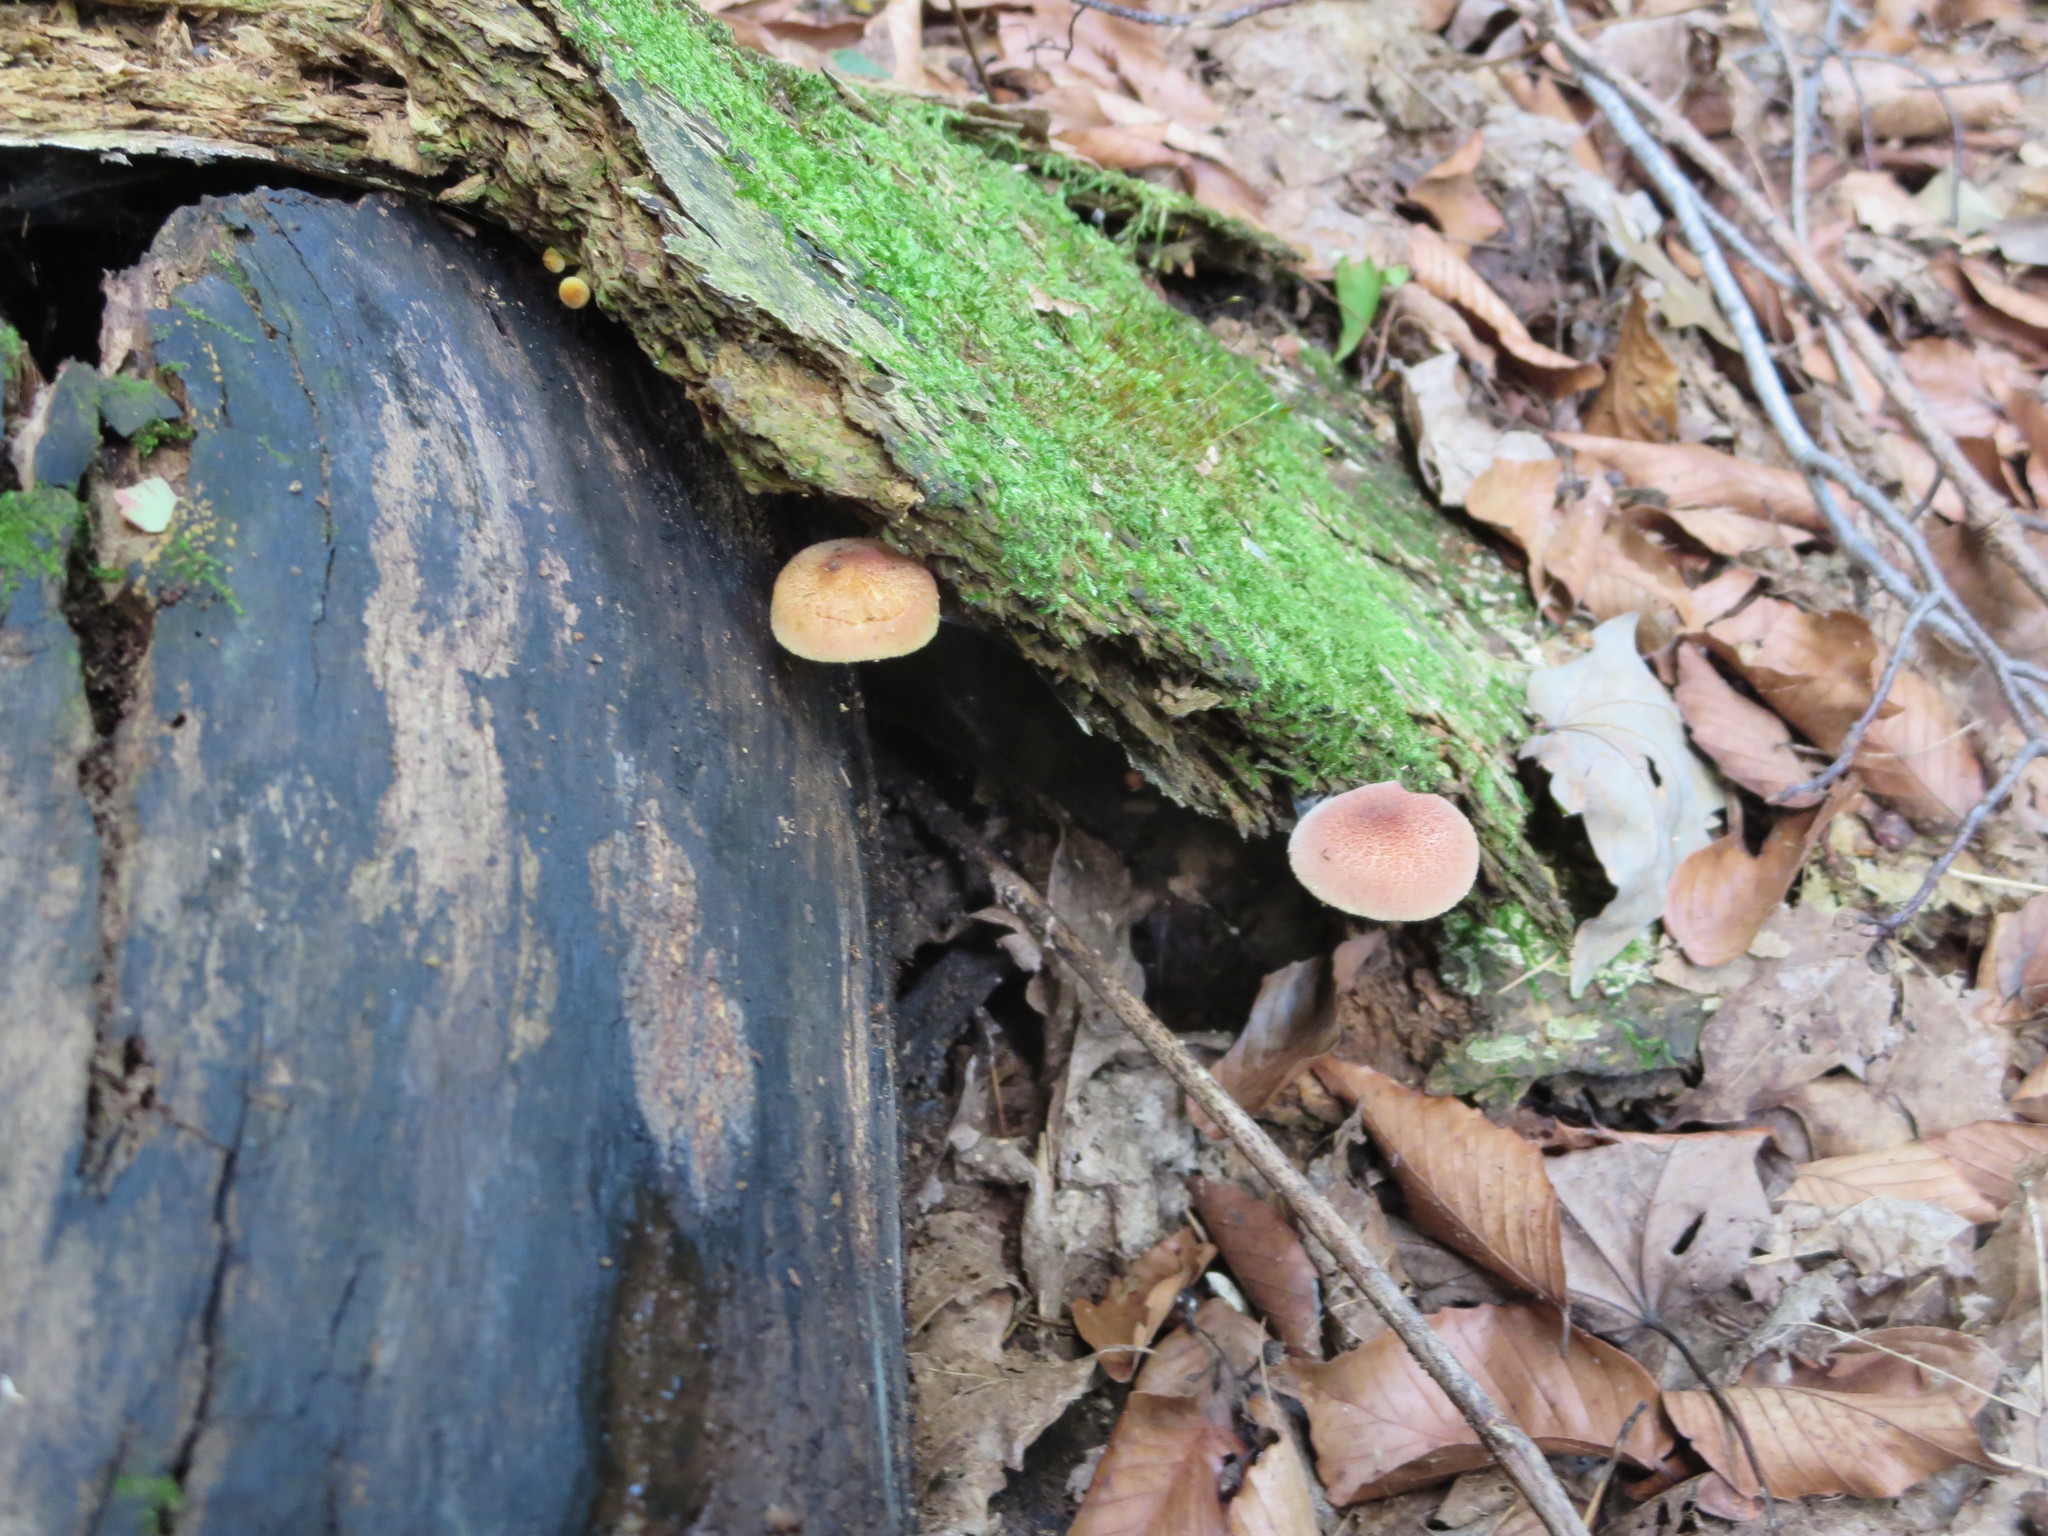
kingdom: Fungi
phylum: Basidiomycota
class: Agaricomycetes
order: Agaricales
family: Tricholomataceae
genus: Tricholomopsis
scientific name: Tricholomopsis flammula
